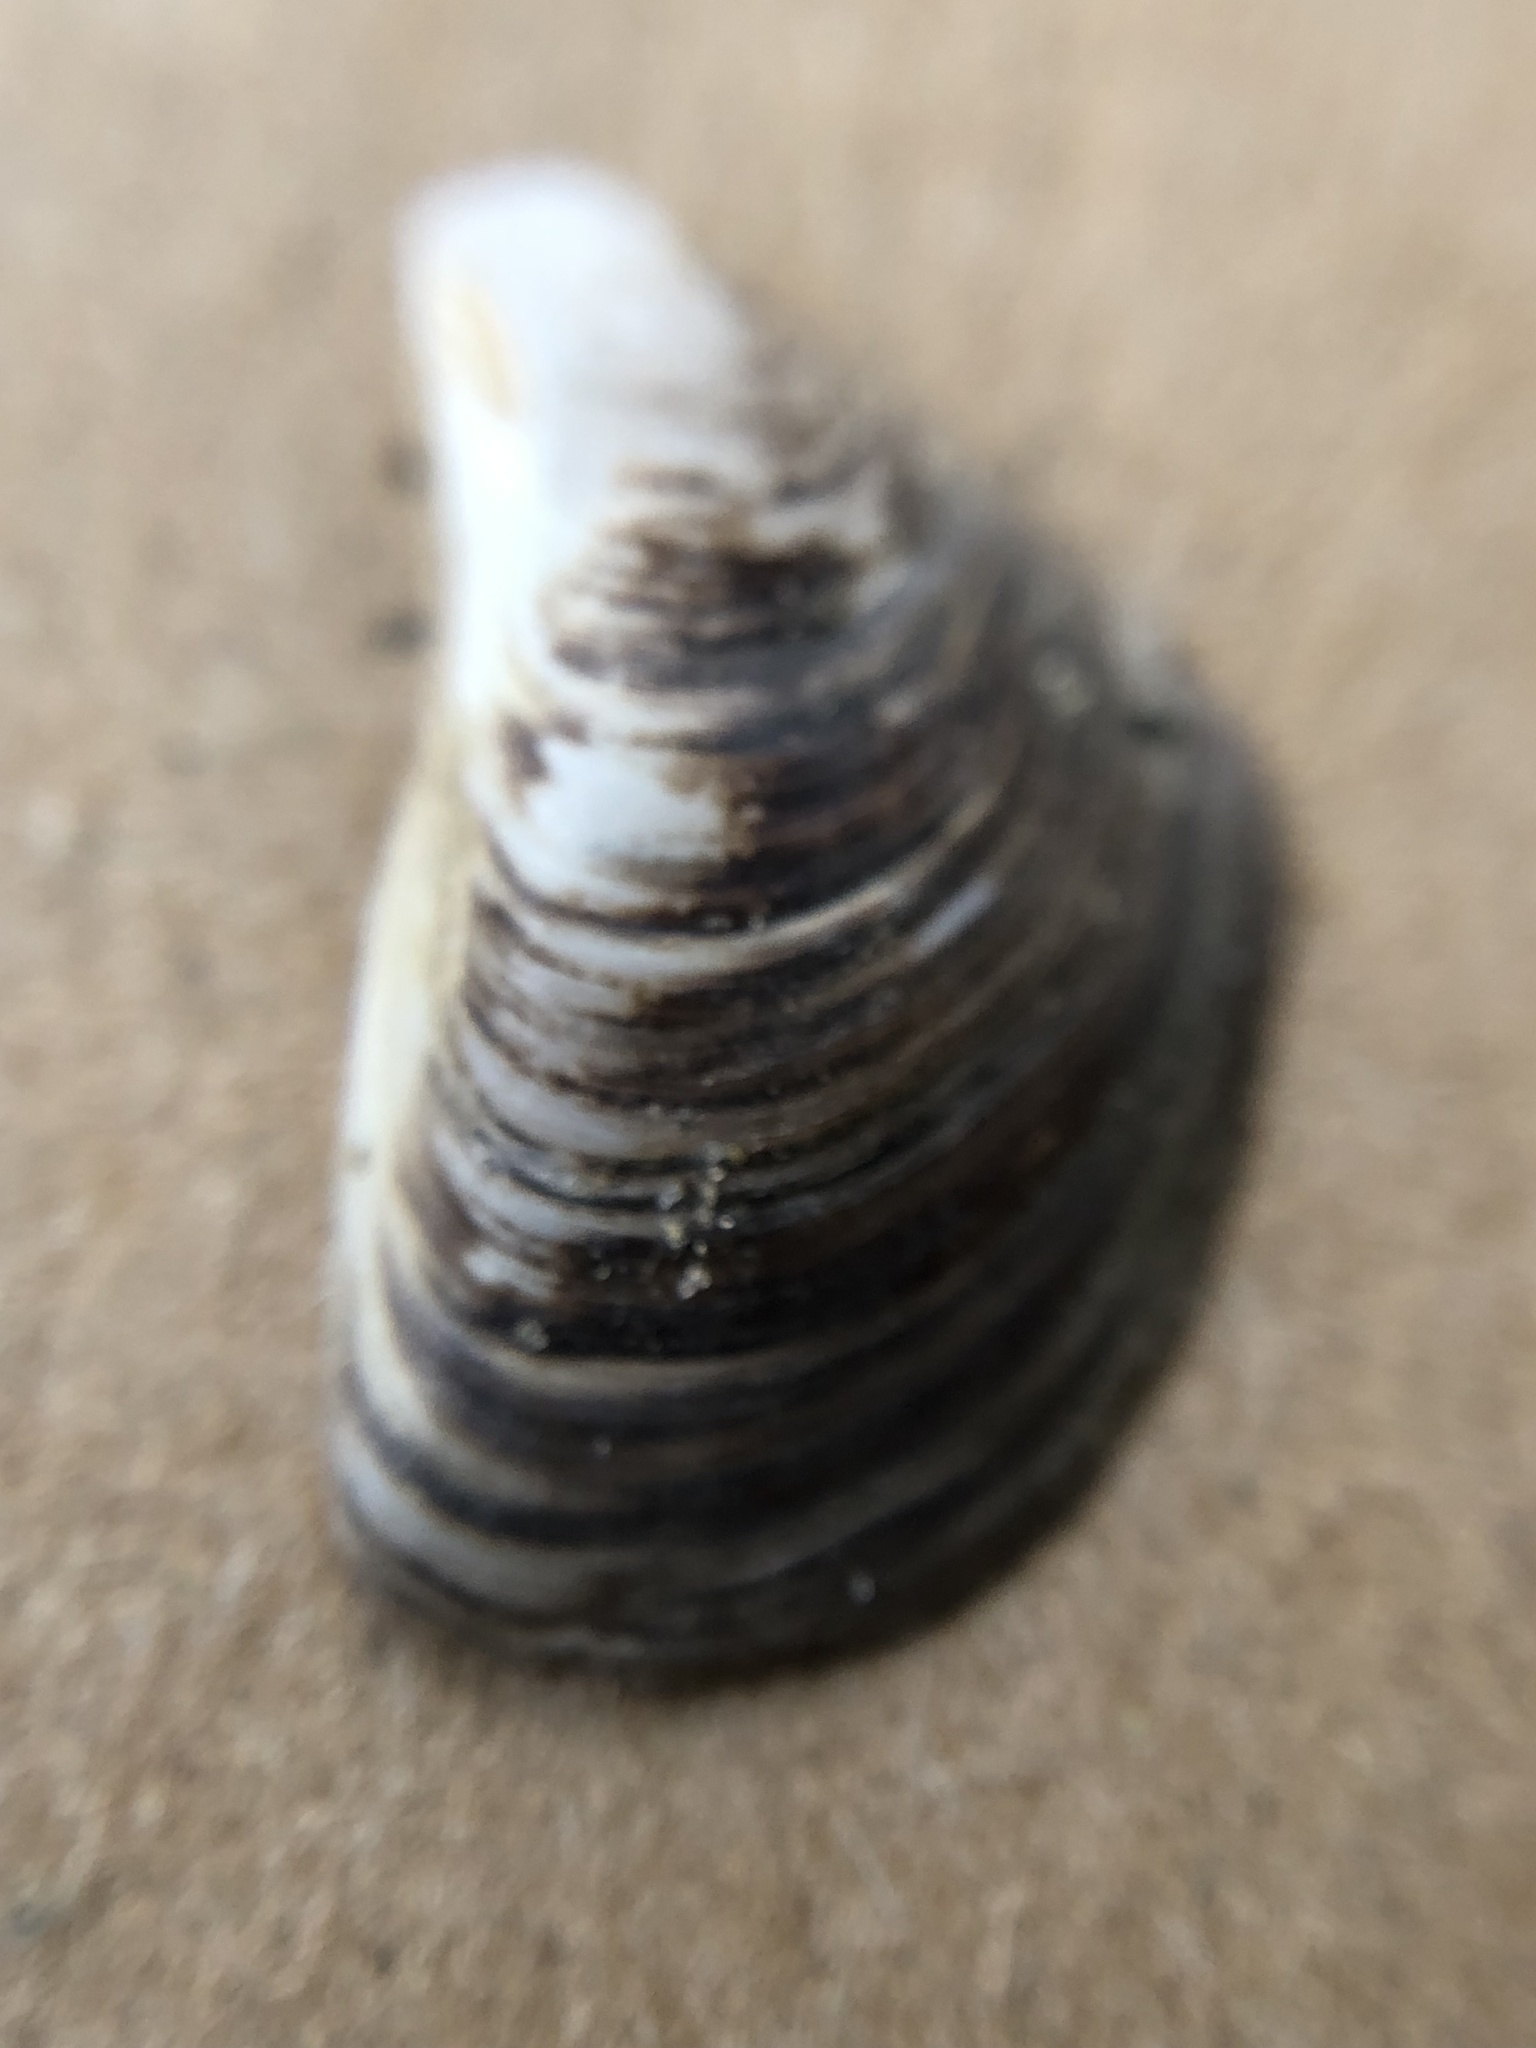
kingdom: Animalia
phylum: Mollusca
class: Bivalvia
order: Myida
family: Dreissenidae
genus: Dreissena
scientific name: Dreissena bugensis
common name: Quagga mussel
